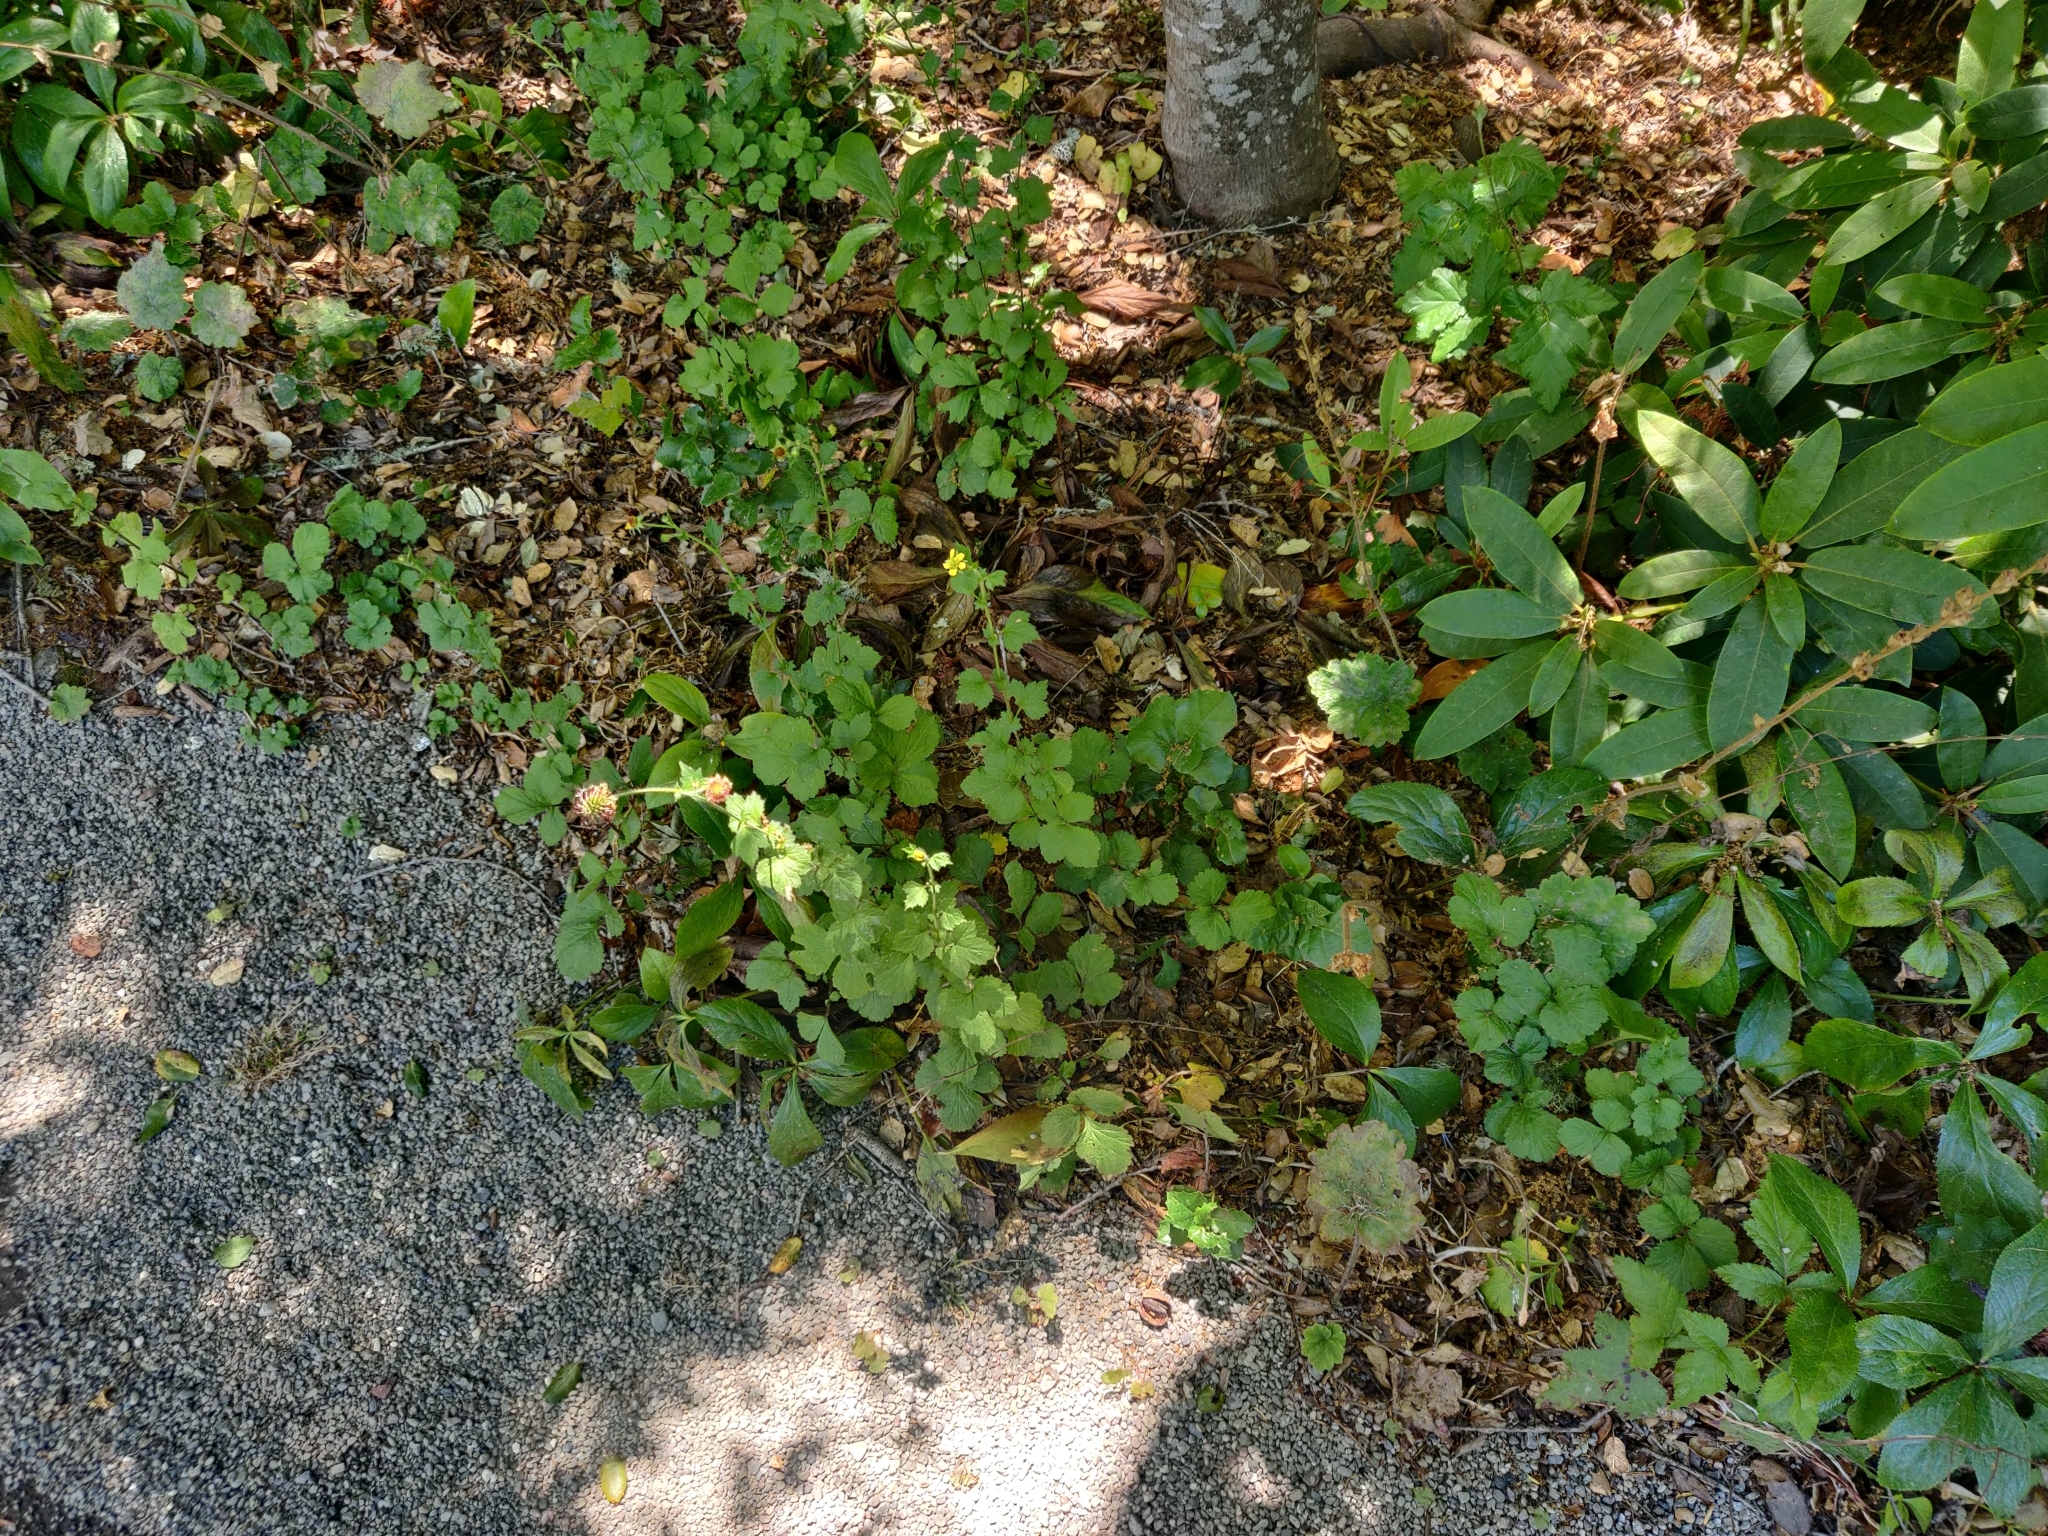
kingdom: Plantae
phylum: Tracheophyta
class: Magnoliopsida
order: Rosales
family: Rosaceae
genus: Potentilla
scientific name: Potentilla indica
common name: Yellow-flowered strawberry
